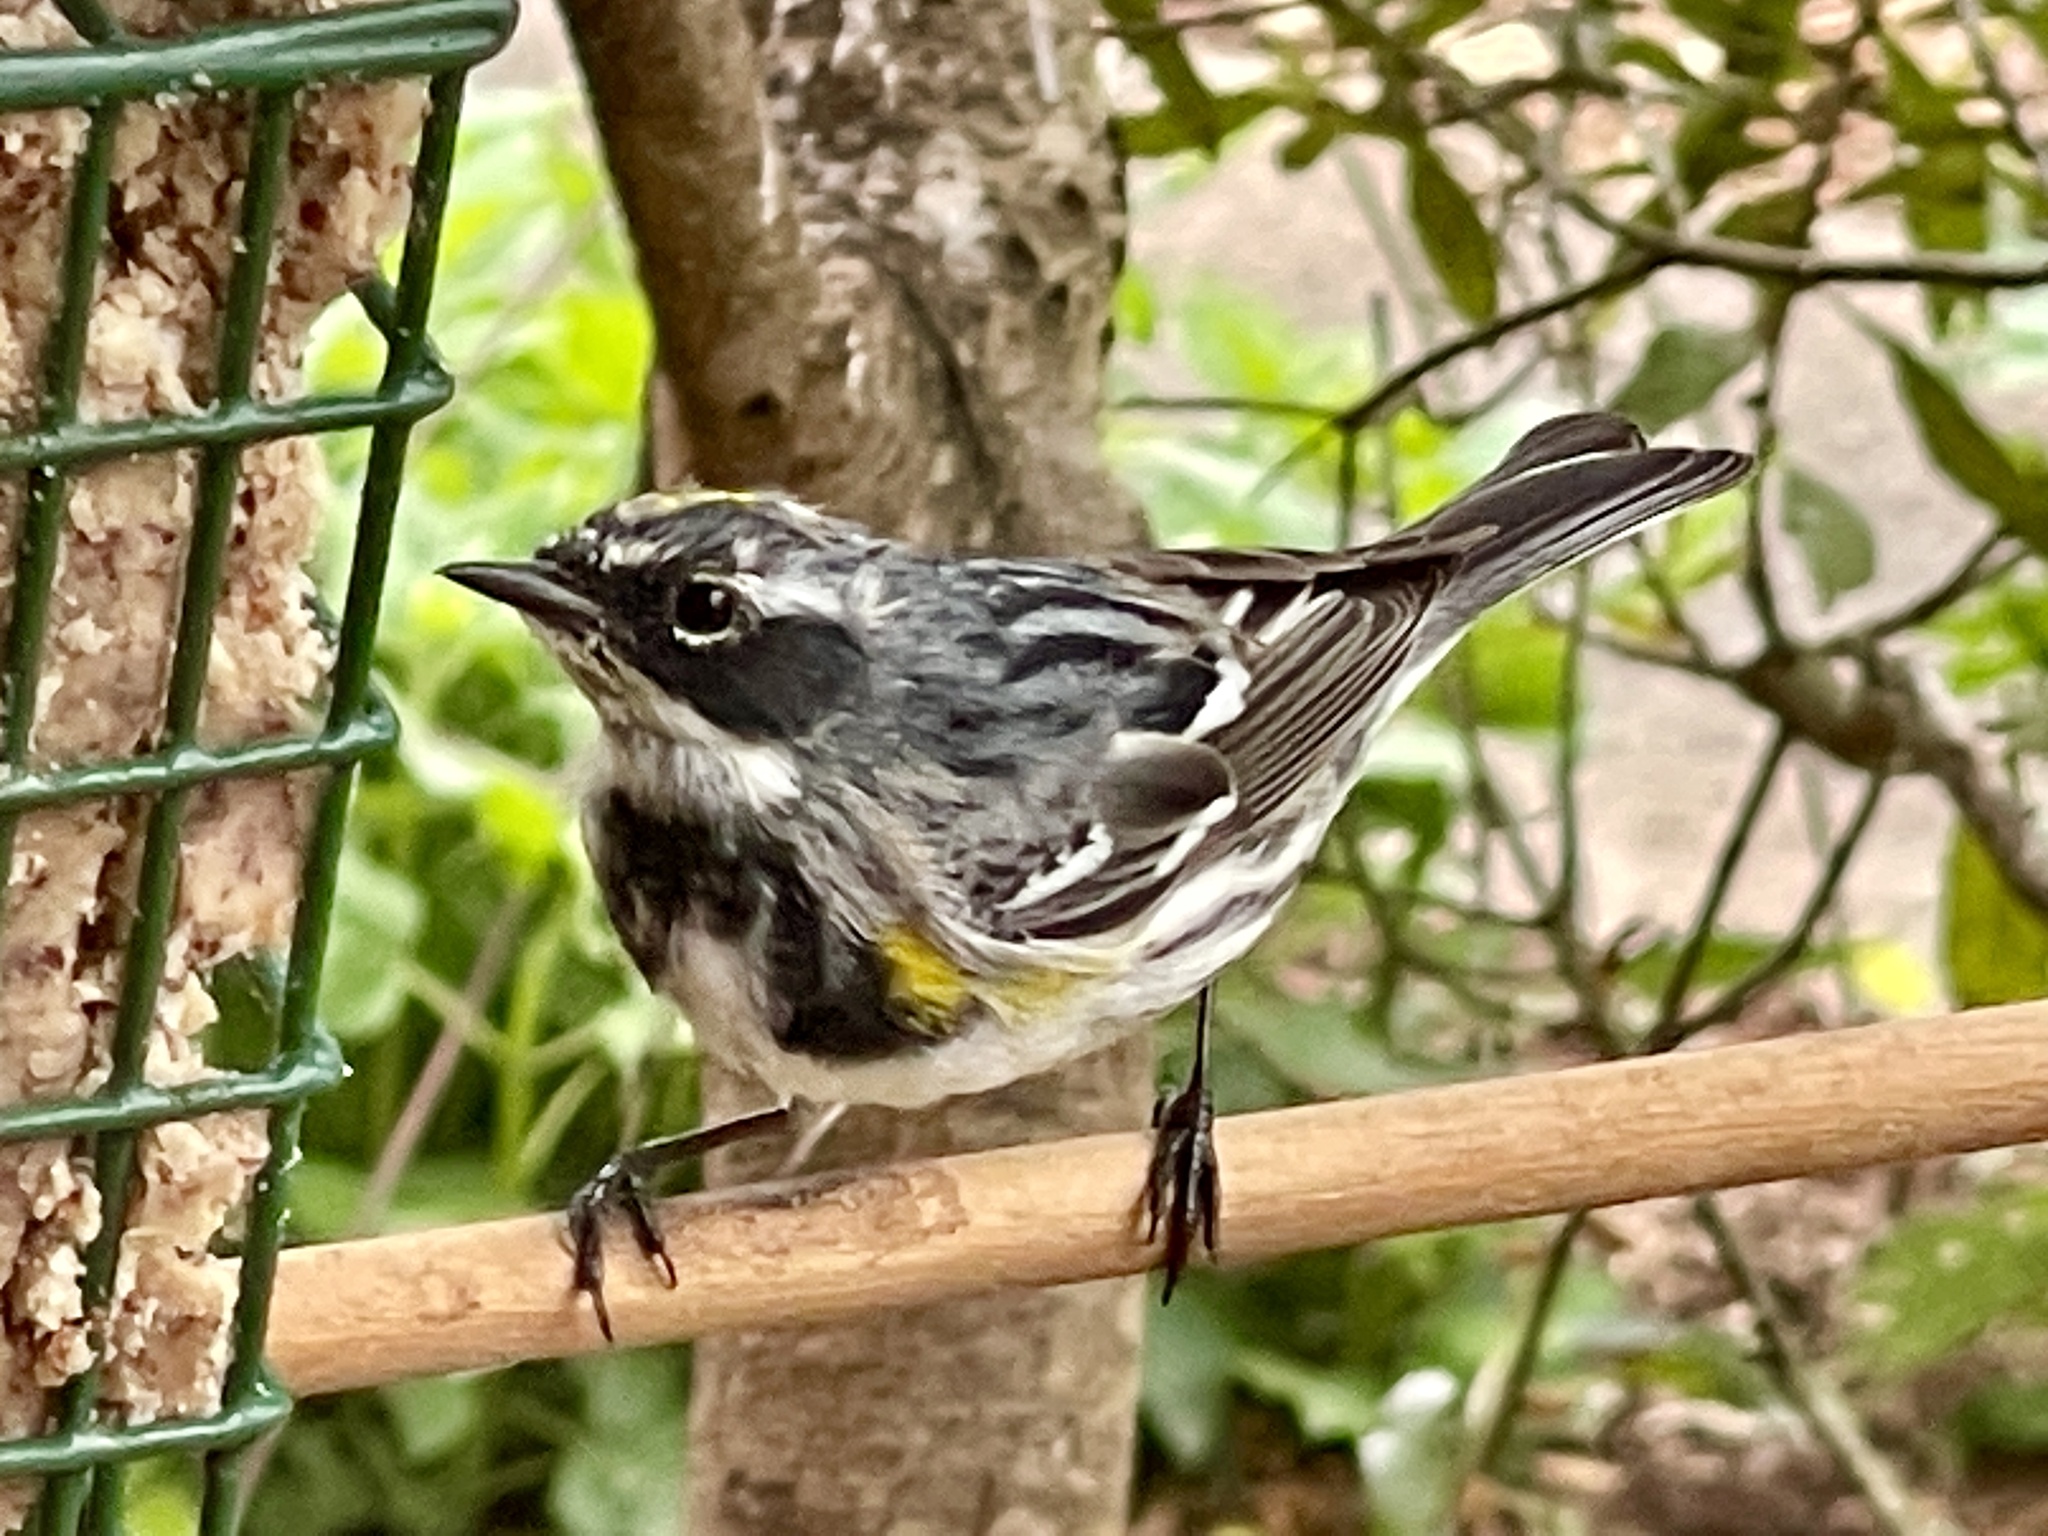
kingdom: Animalia
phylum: Chordata
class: Aves
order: Passeriformes
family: Parulidae
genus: Setophaga
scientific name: Setophaga coronata
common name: Myrtle warbler
